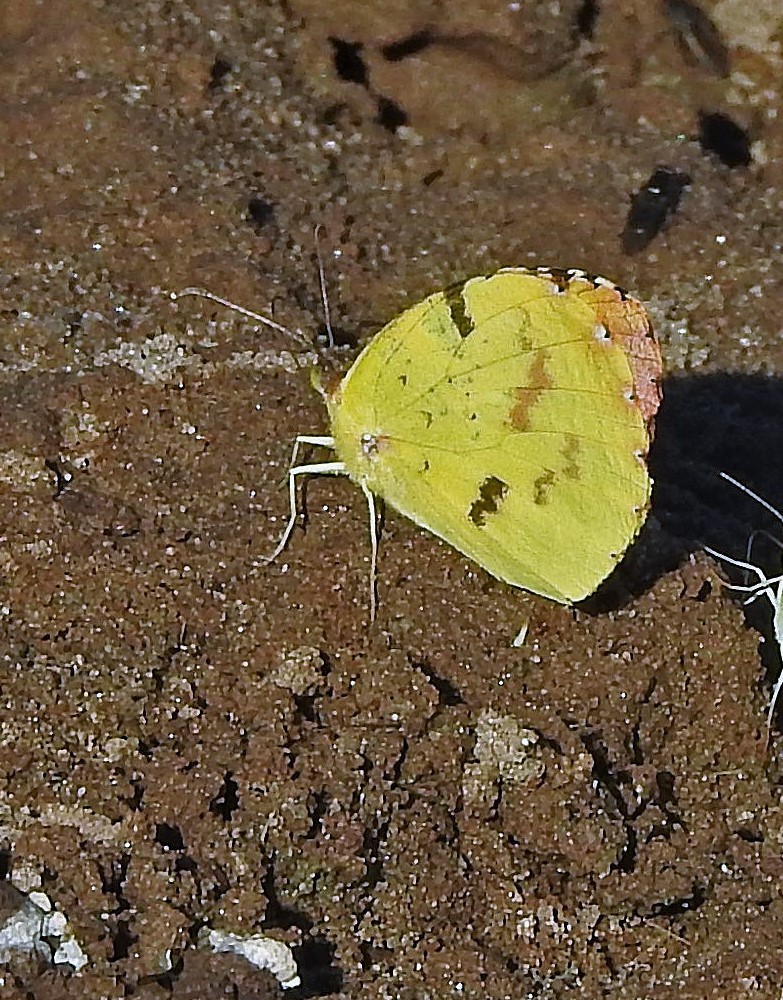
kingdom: Animalia
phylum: Arthropoda
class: Insecta
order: Lepidoptera
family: Pieridae
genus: Teriocolias
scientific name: Teriocolias
